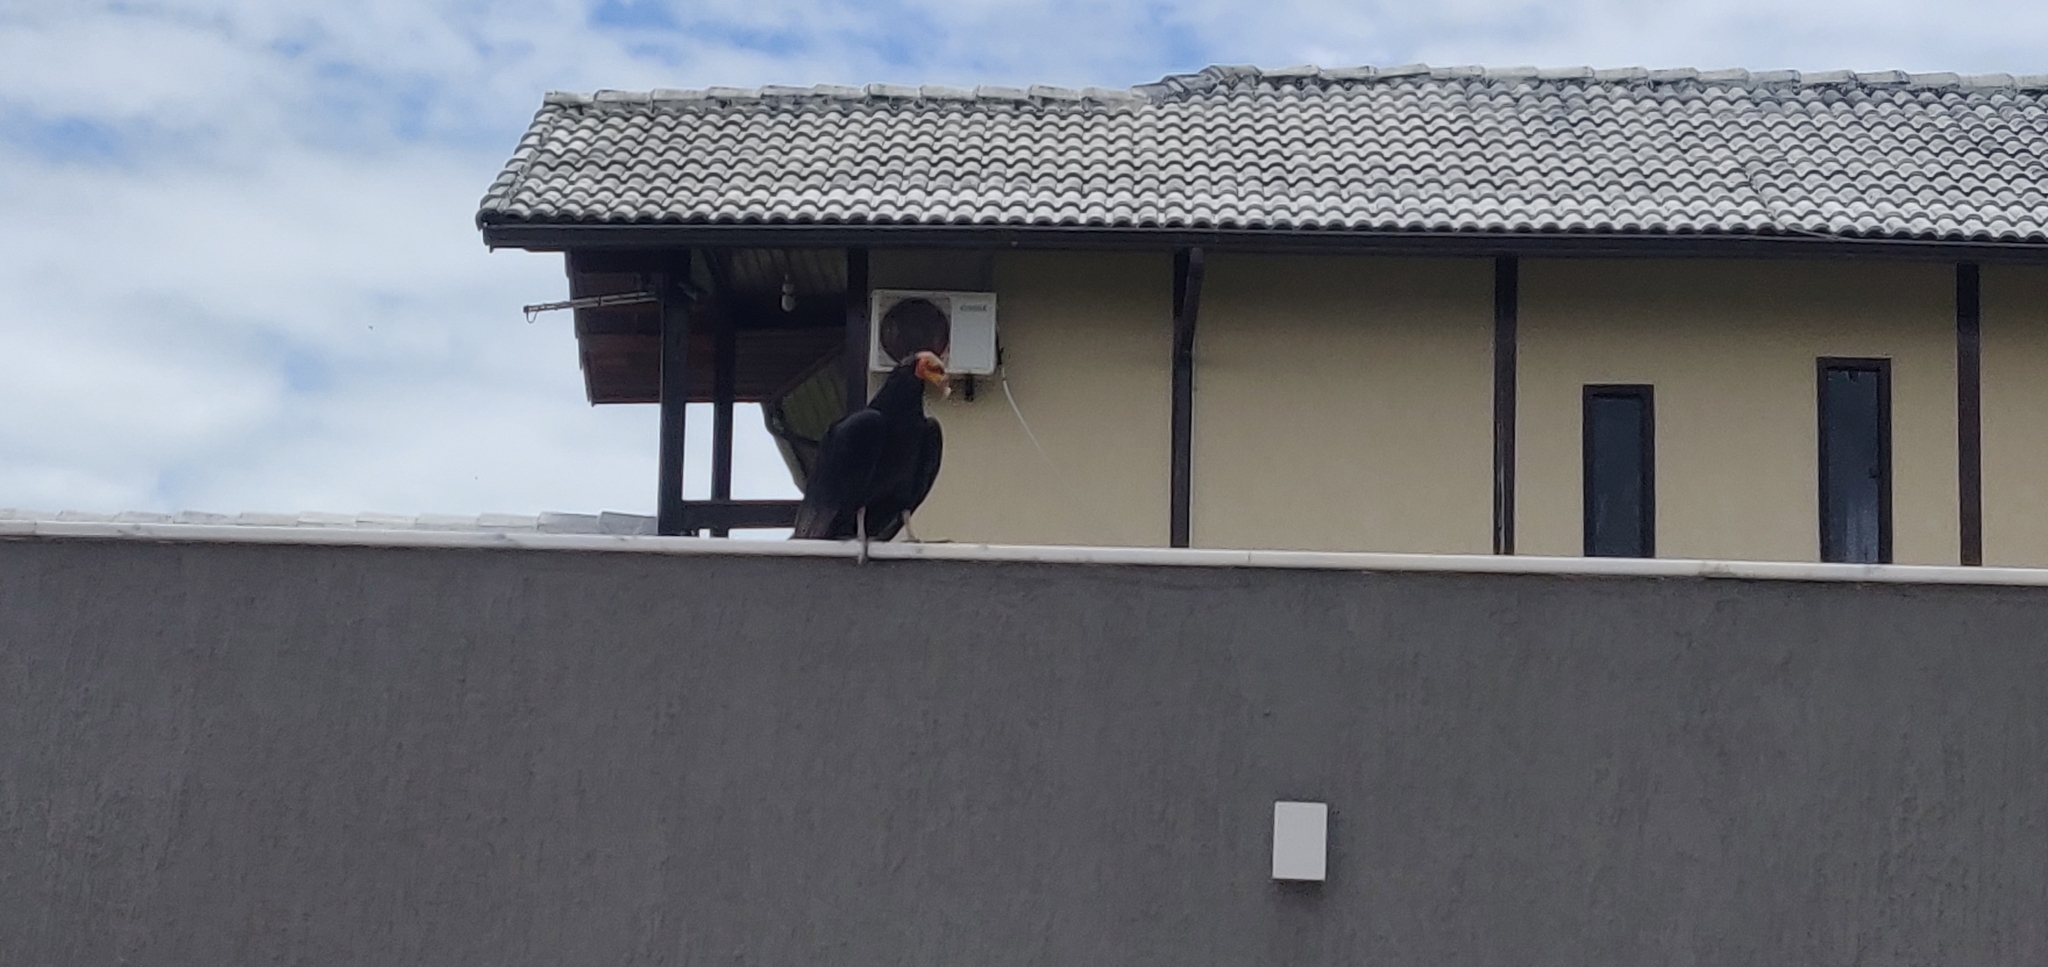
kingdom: Animalia
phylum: Chordata
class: Aves
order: Accipitriformes
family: Cathartidae
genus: Cathartes
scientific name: Cathartes burrovianus
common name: Lesser yellow-headed vulture
